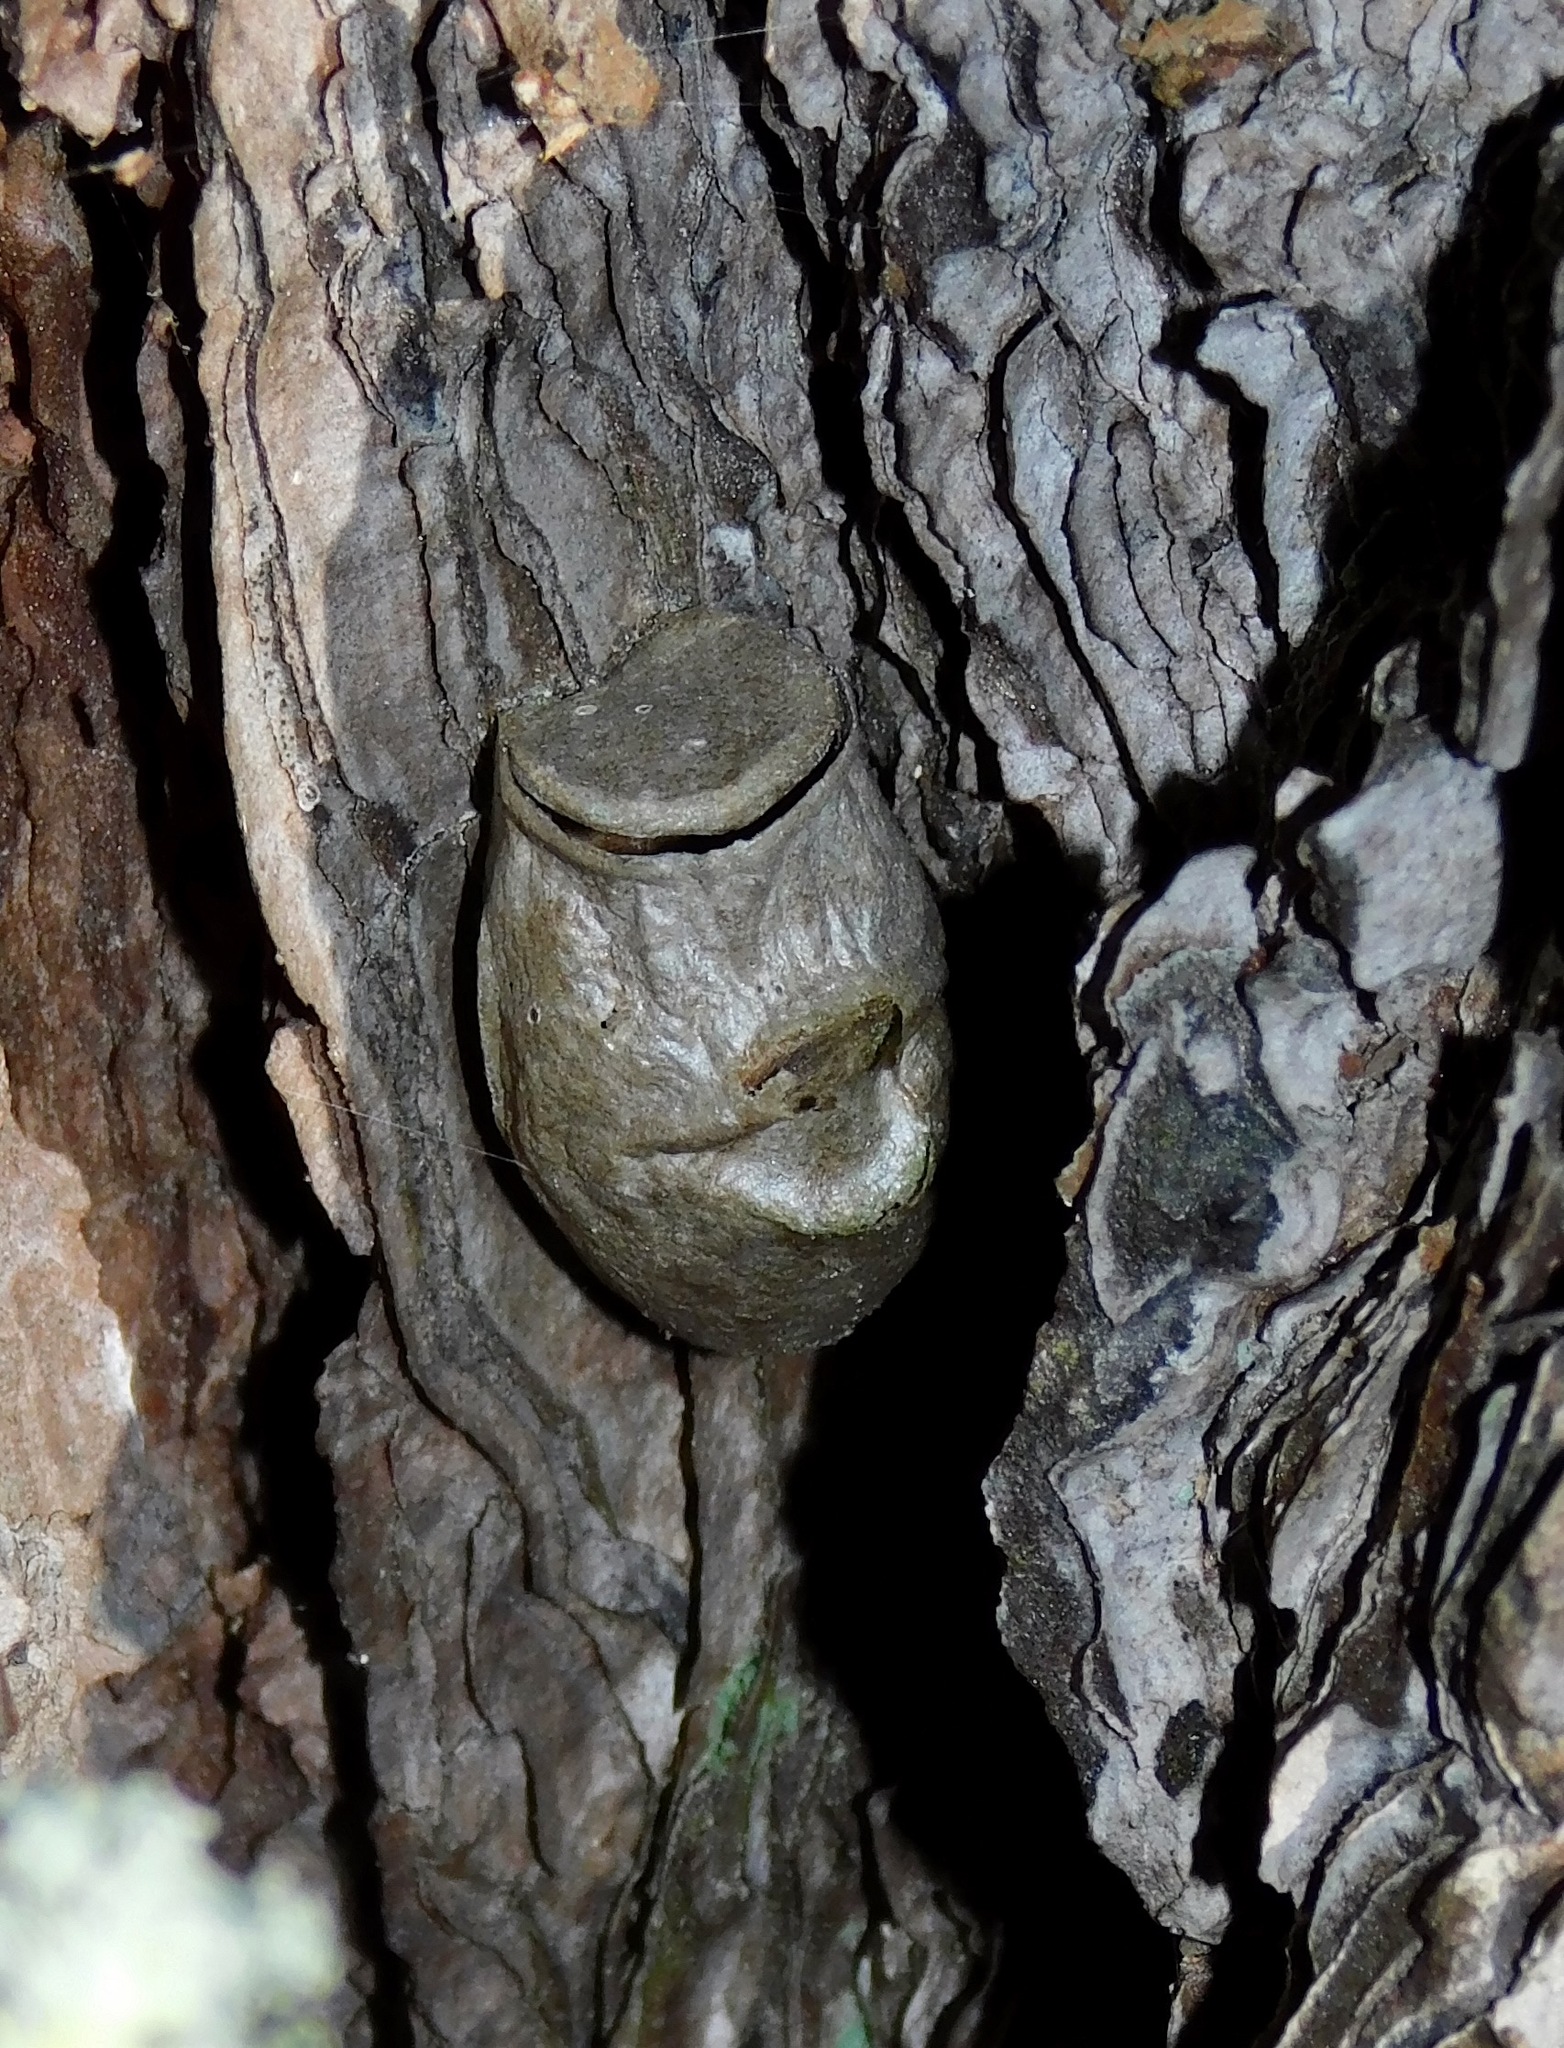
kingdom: Animalia
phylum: Arthropoda
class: Insecta
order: Lepidoptera
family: Megalopygidae
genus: Megalopyge
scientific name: Megalopyge
